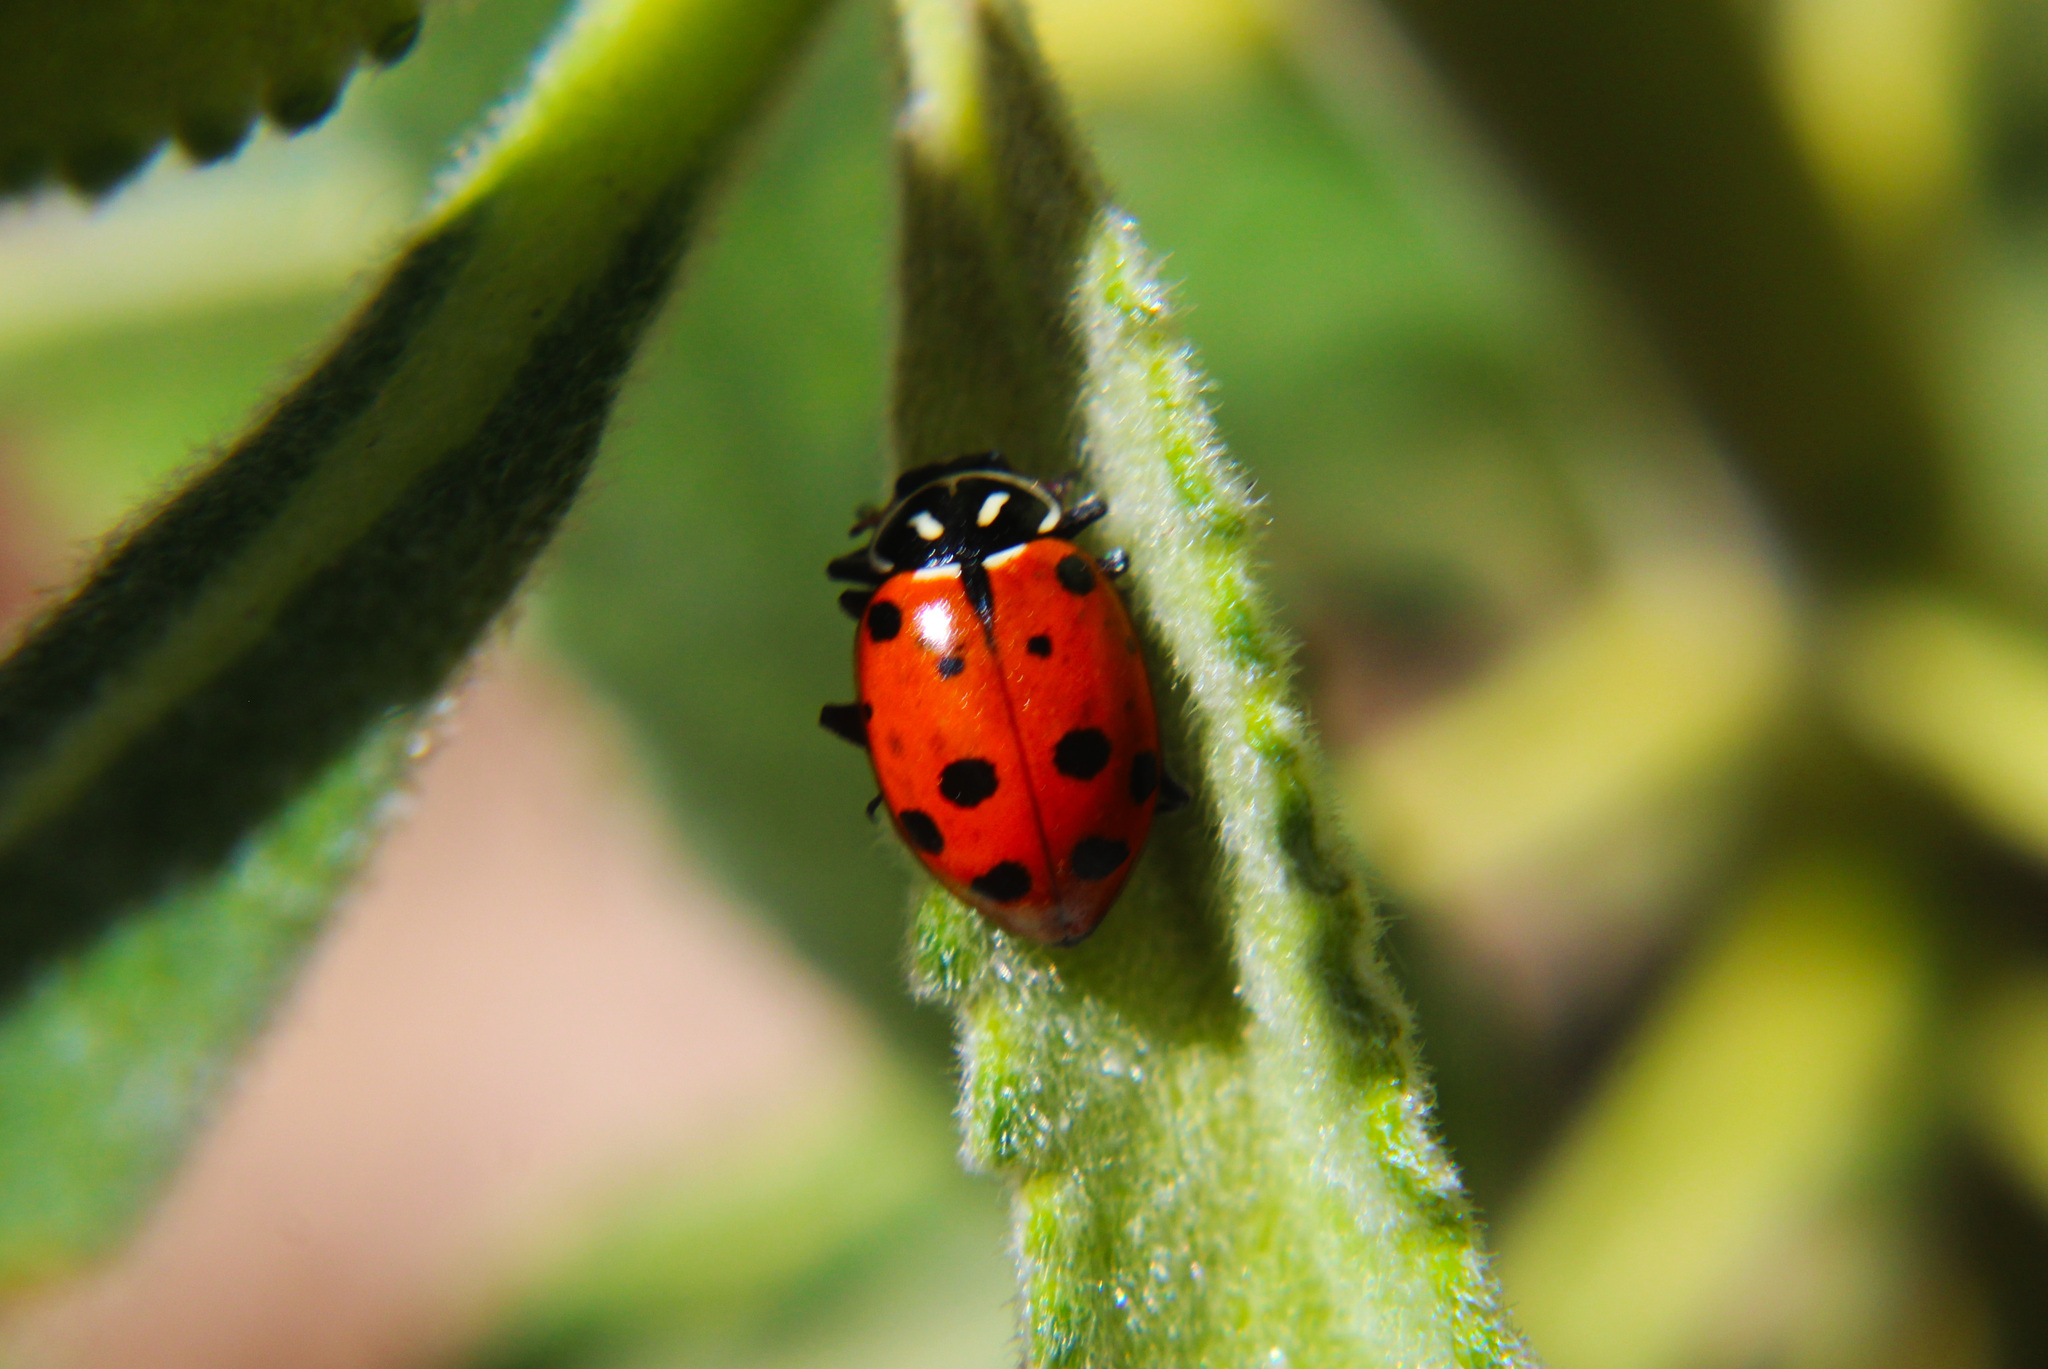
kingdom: Animalia
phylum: Arthropoda
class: Insecta
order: Coleoptera
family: Coccinellidae
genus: Hippodamia
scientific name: Hippodamia convergens
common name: Convergent lady beetle
